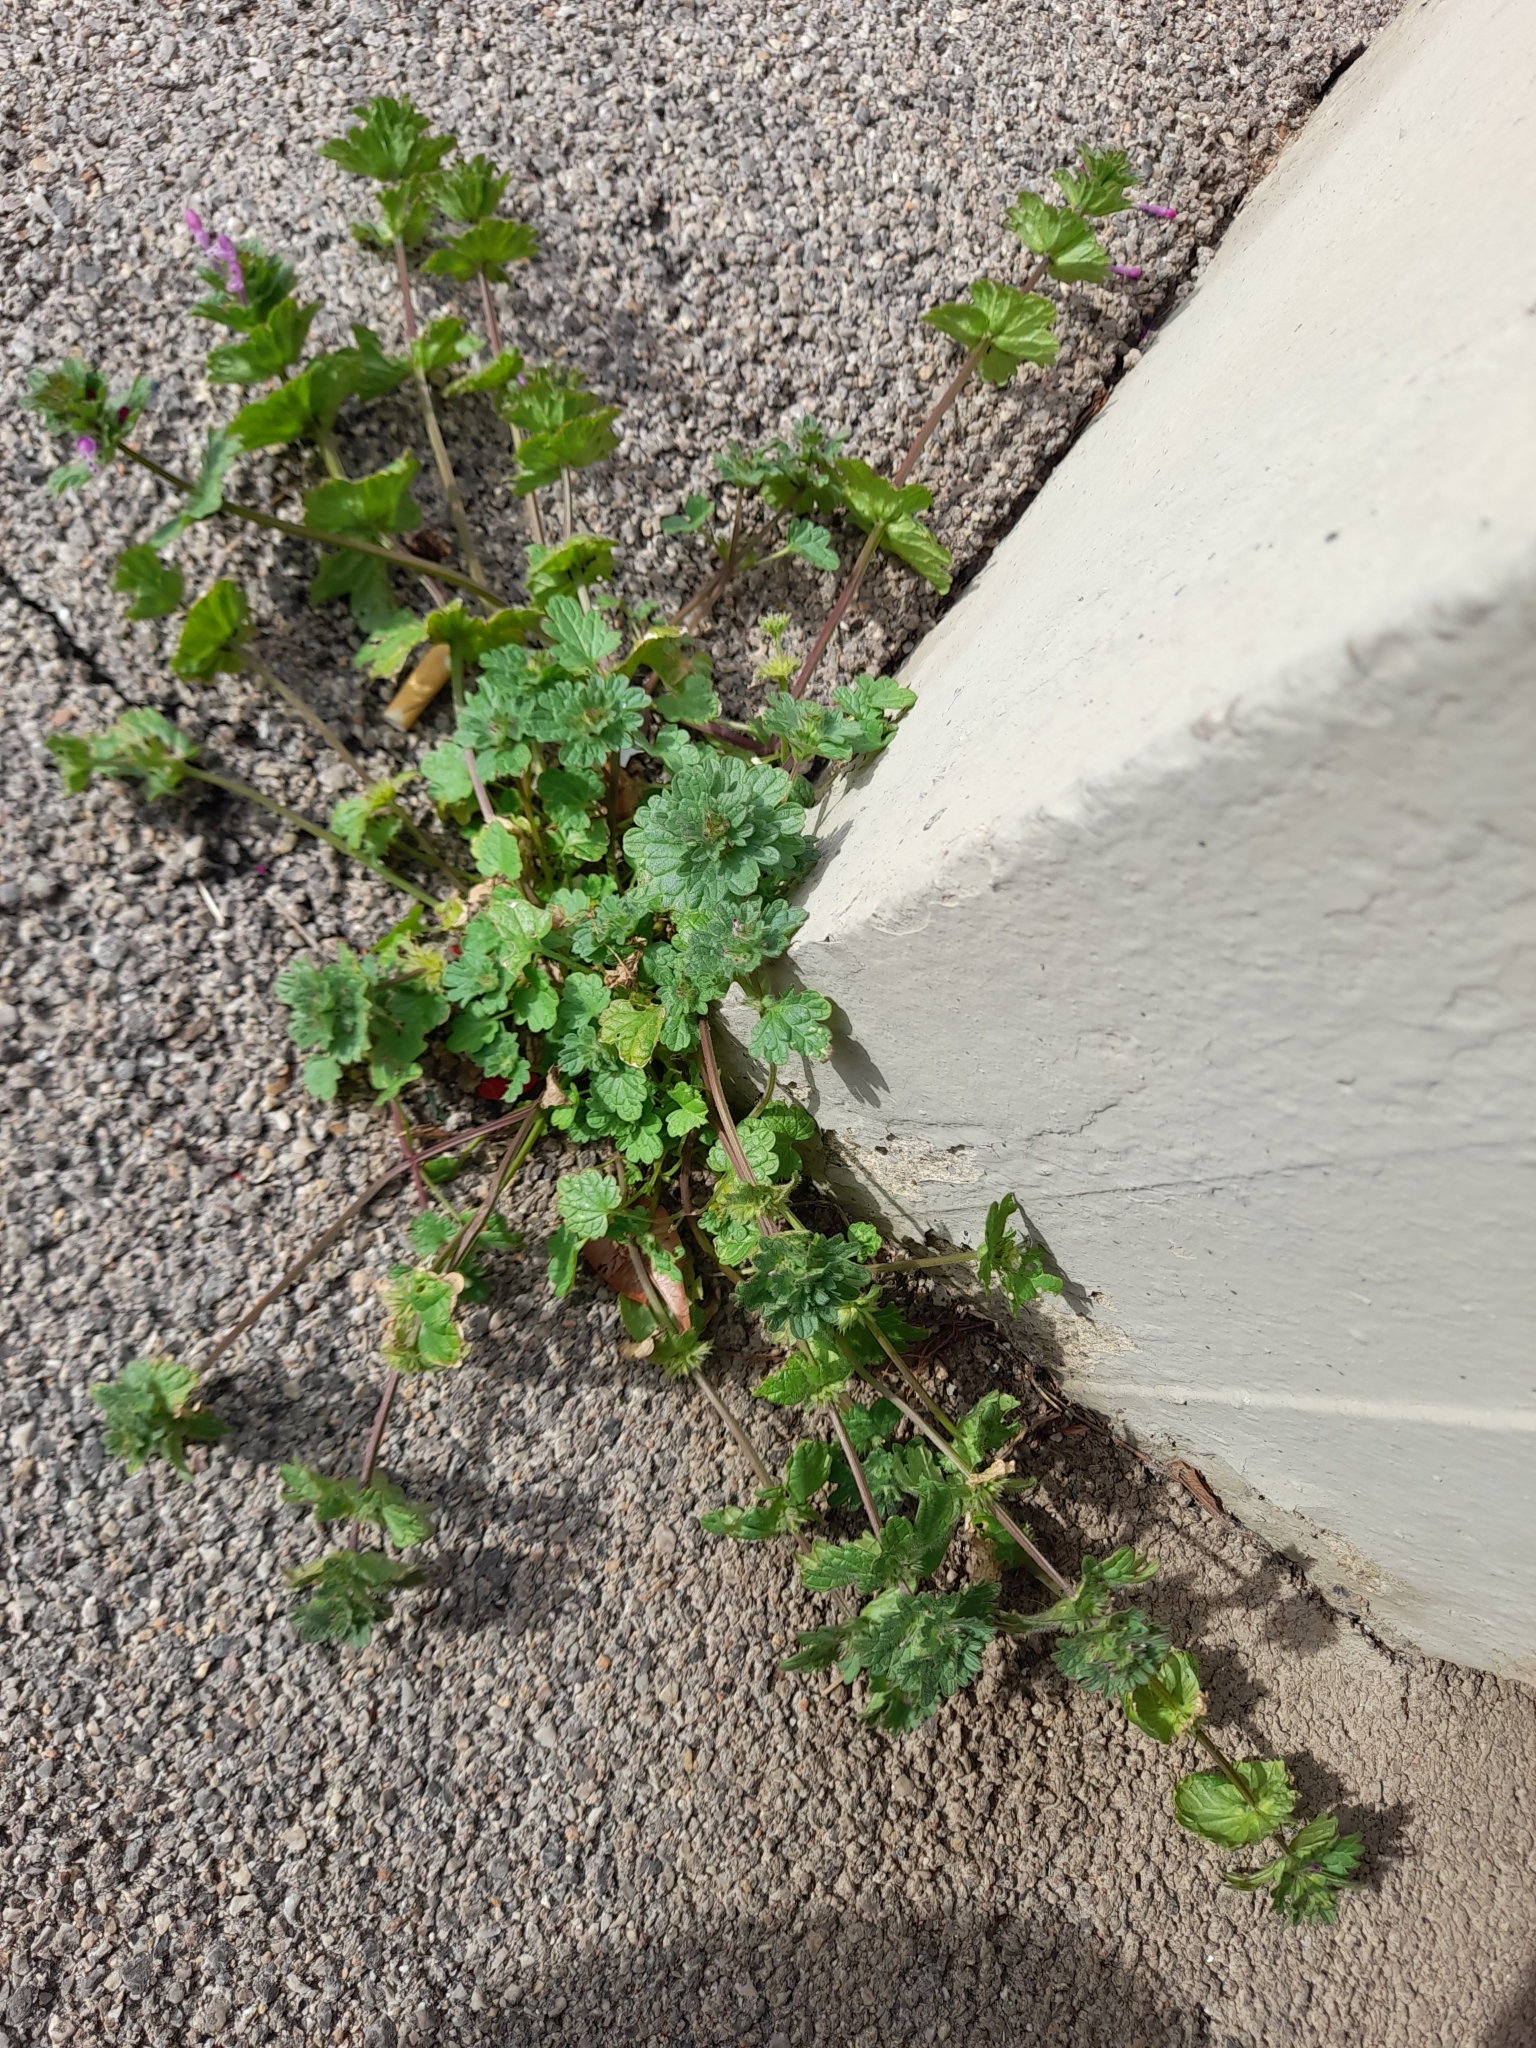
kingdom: Plantae
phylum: Tracheophyta
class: Magnoliopsida
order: Lamiales
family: Lamiaceae
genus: Lamium
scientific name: Lamium amplexicaule
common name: Henbit dead-nettle
